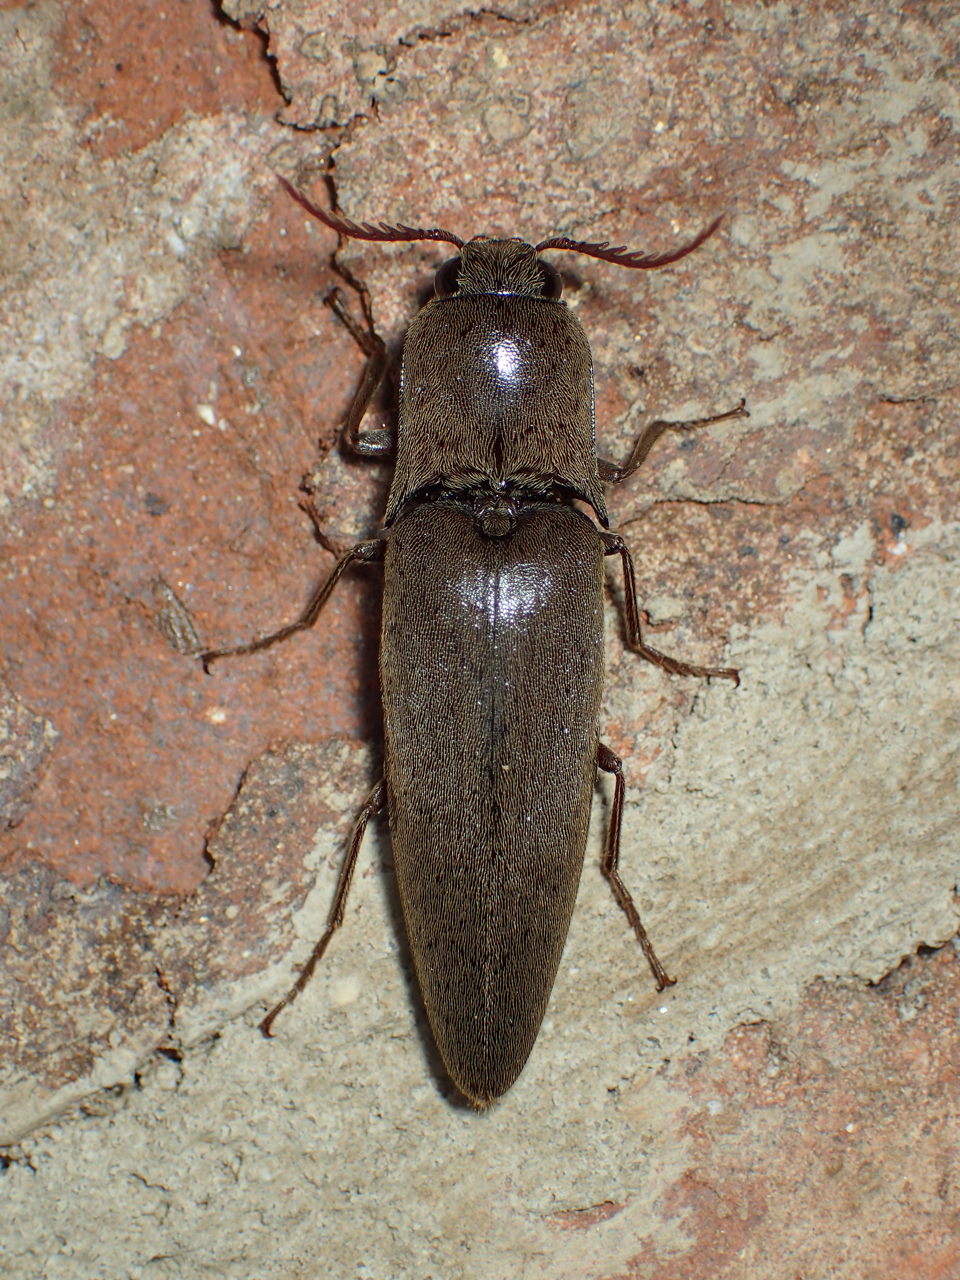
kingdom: Animalia
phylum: Arthropoda
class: Insecta
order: Coleoptera
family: Elateridae
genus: Orthostethus
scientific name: Orthostethus infuscatus
